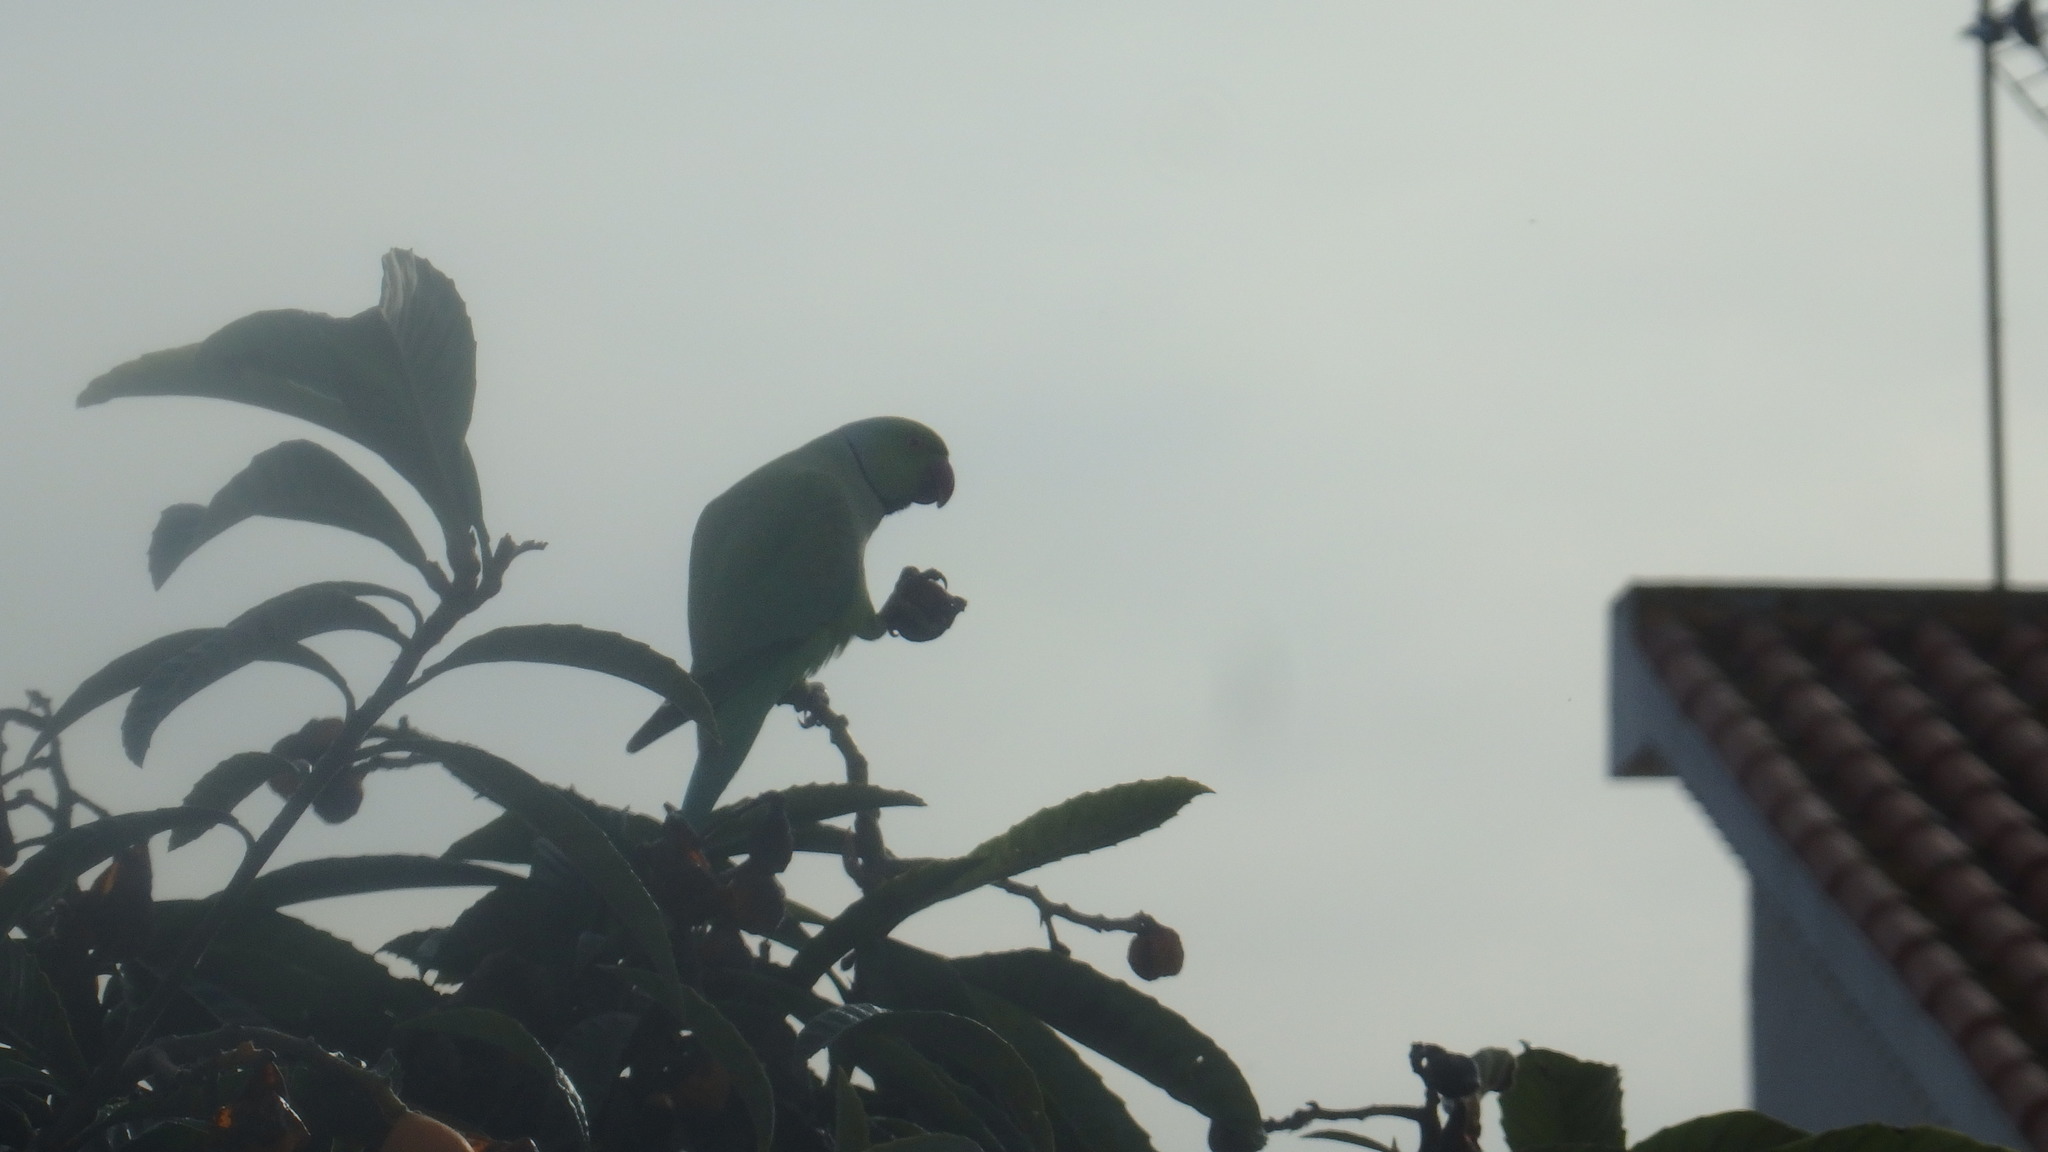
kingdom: Animalia
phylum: Chordata
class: Aves
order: Psittaciformes
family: Psittacidae
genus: Psittacula
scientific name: Psittacula krameri
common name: Rose-ringed parakeet
